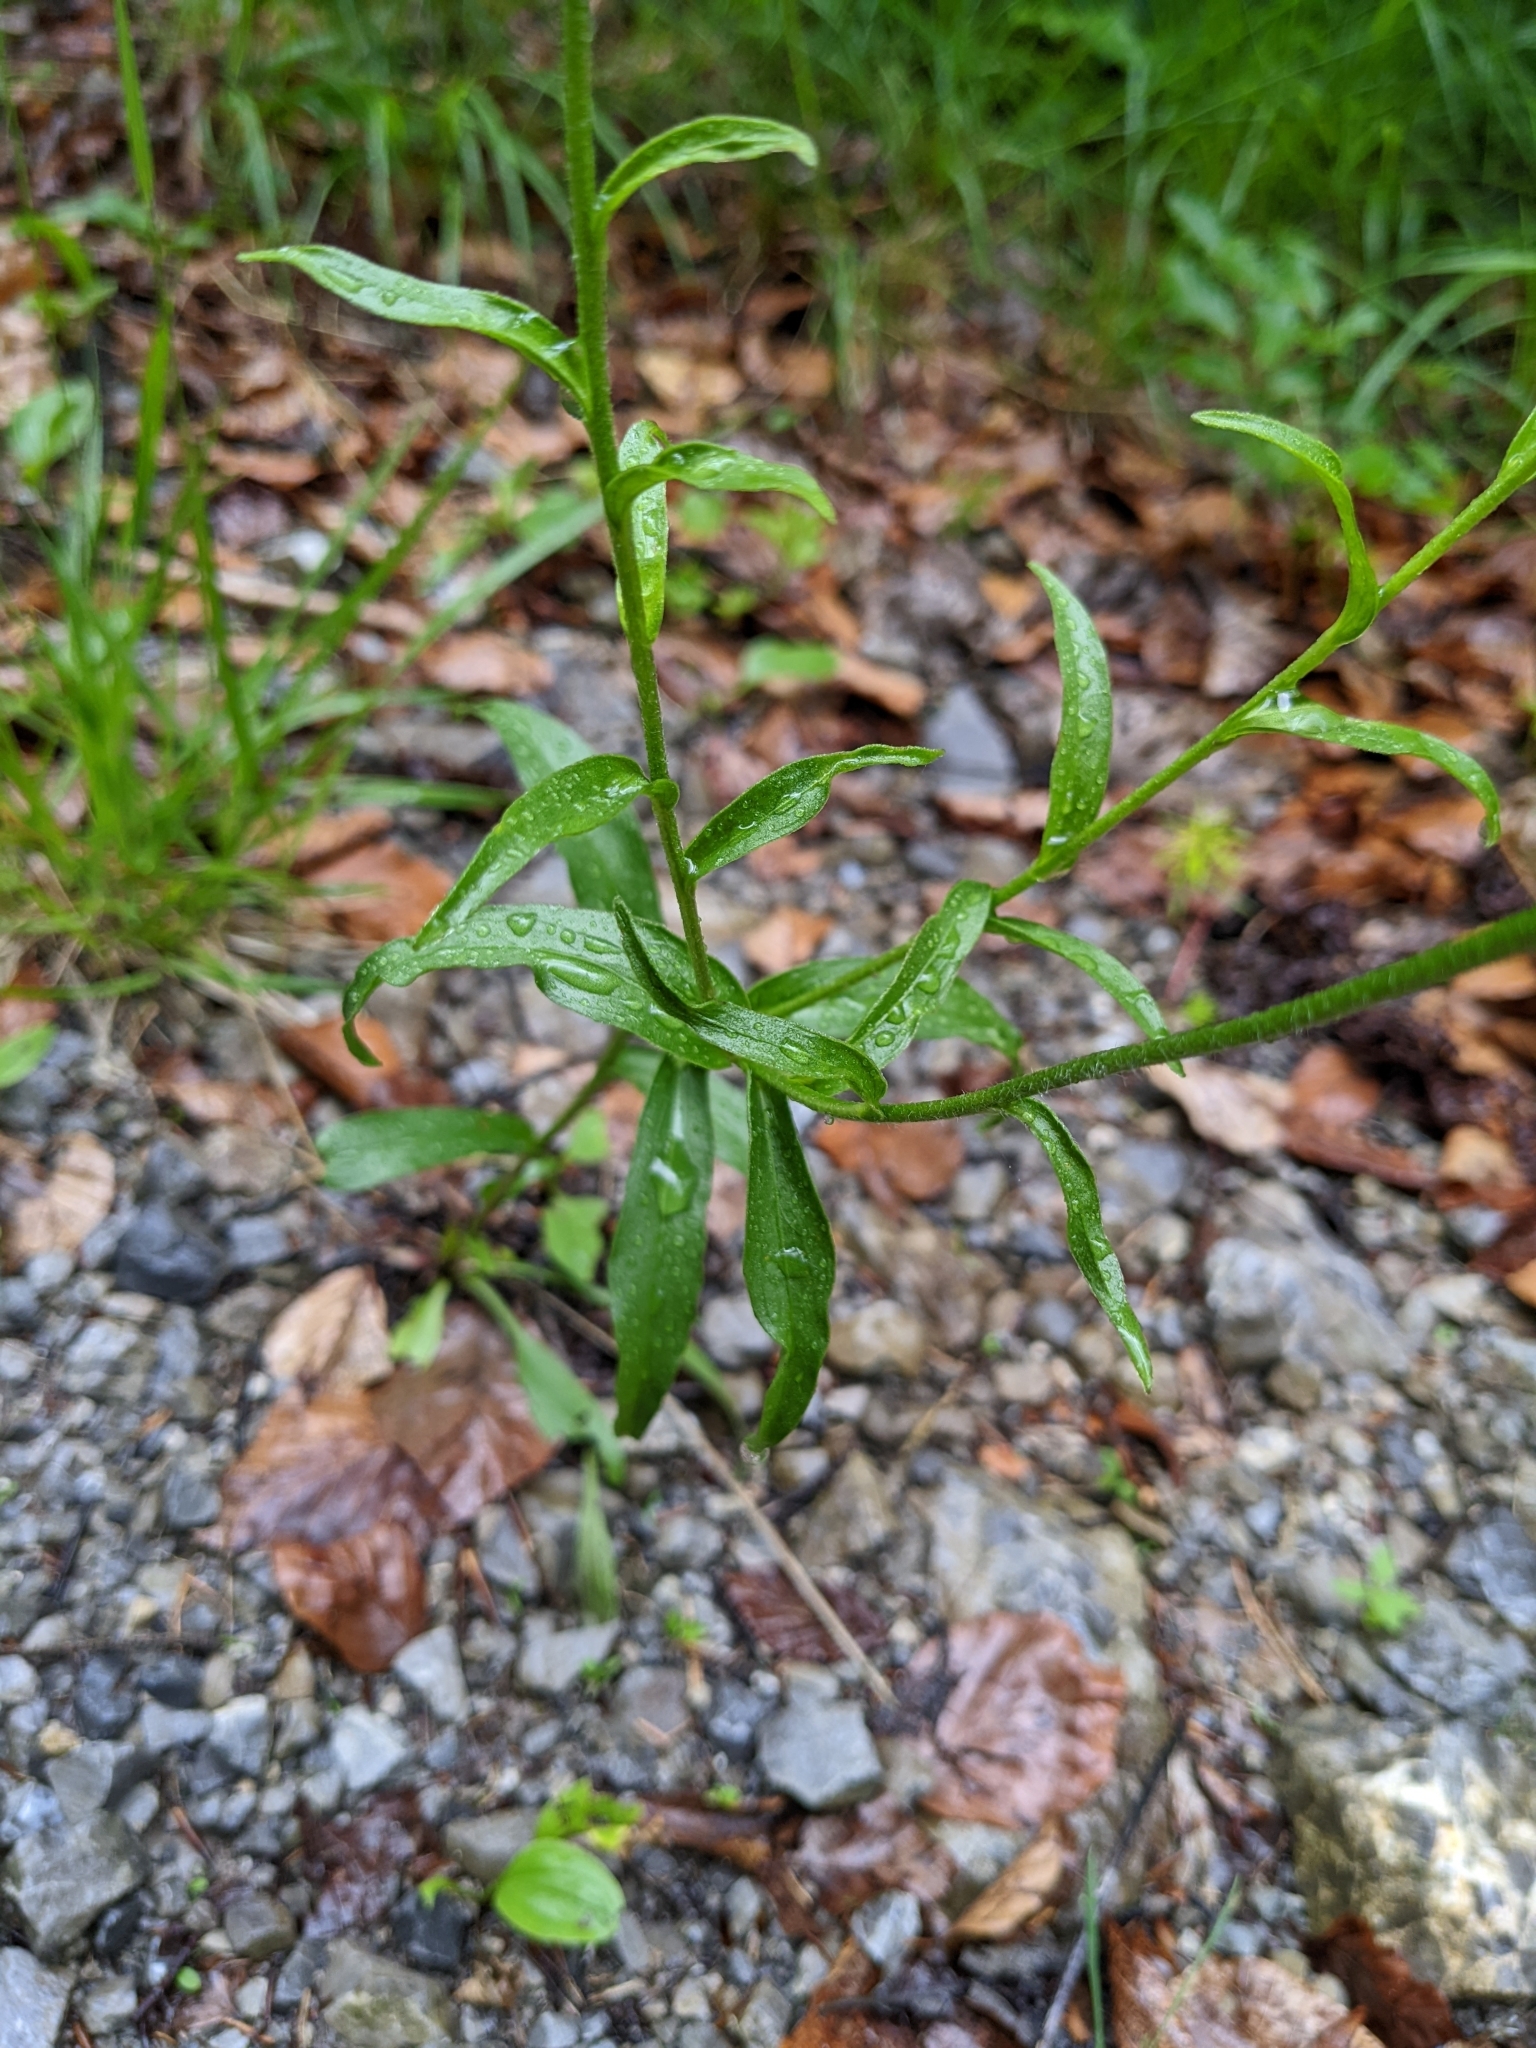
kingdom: Plantae
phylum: Tracheophyta
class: Magnoliopsida
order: Asterales
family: Asteraceae
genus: Buphthalmum
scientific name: Buphthalmum salicifolium
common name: Willow-leaved yellow-oxeye
